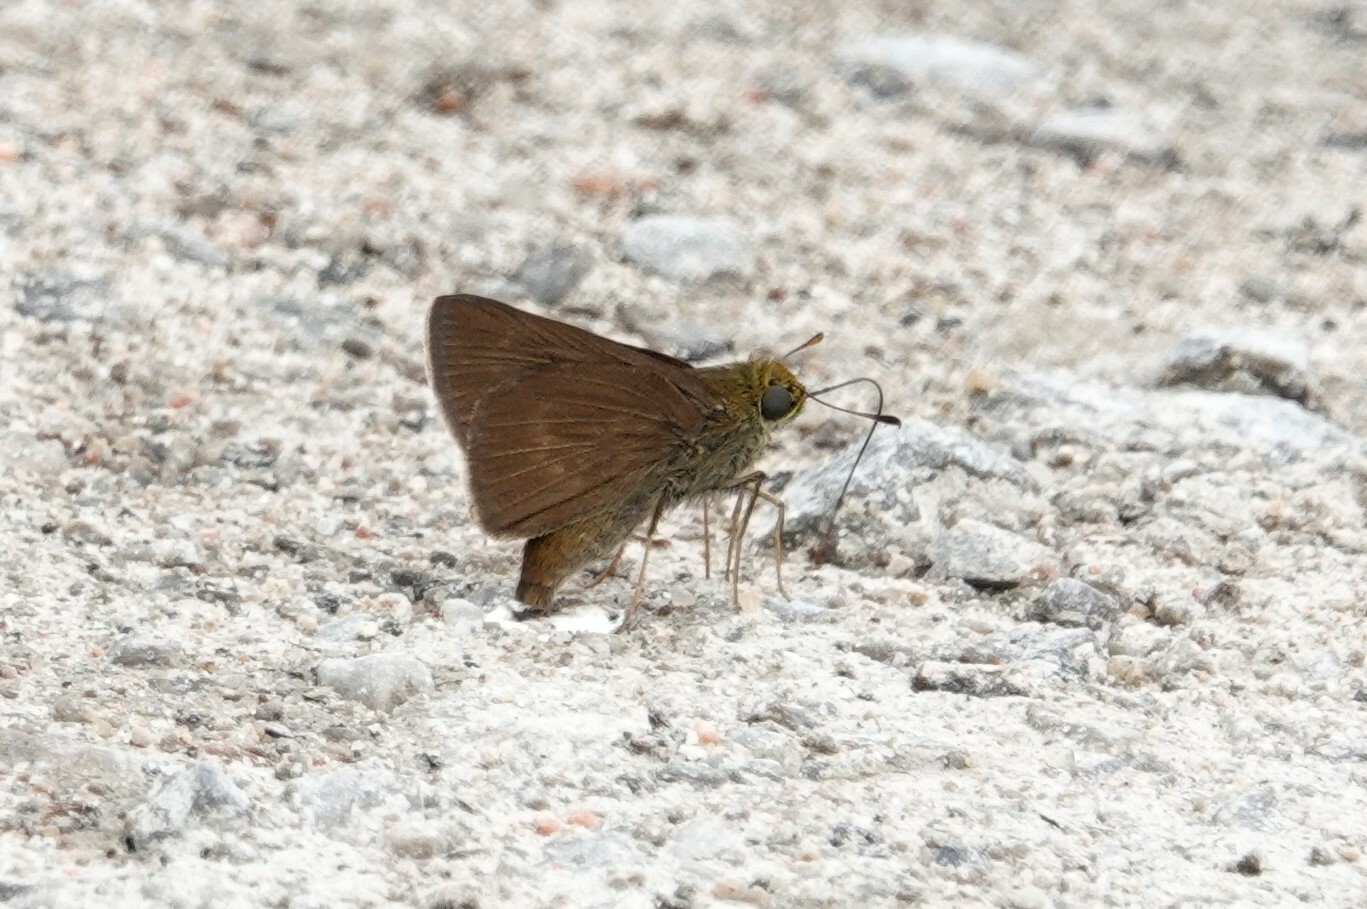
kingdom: Animalia
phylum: Arthropoda
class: Insecta
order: Lepidoptera
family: Hesperiidae
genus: Euphyes
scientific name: Euphyes vestris
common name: Dun skipper
